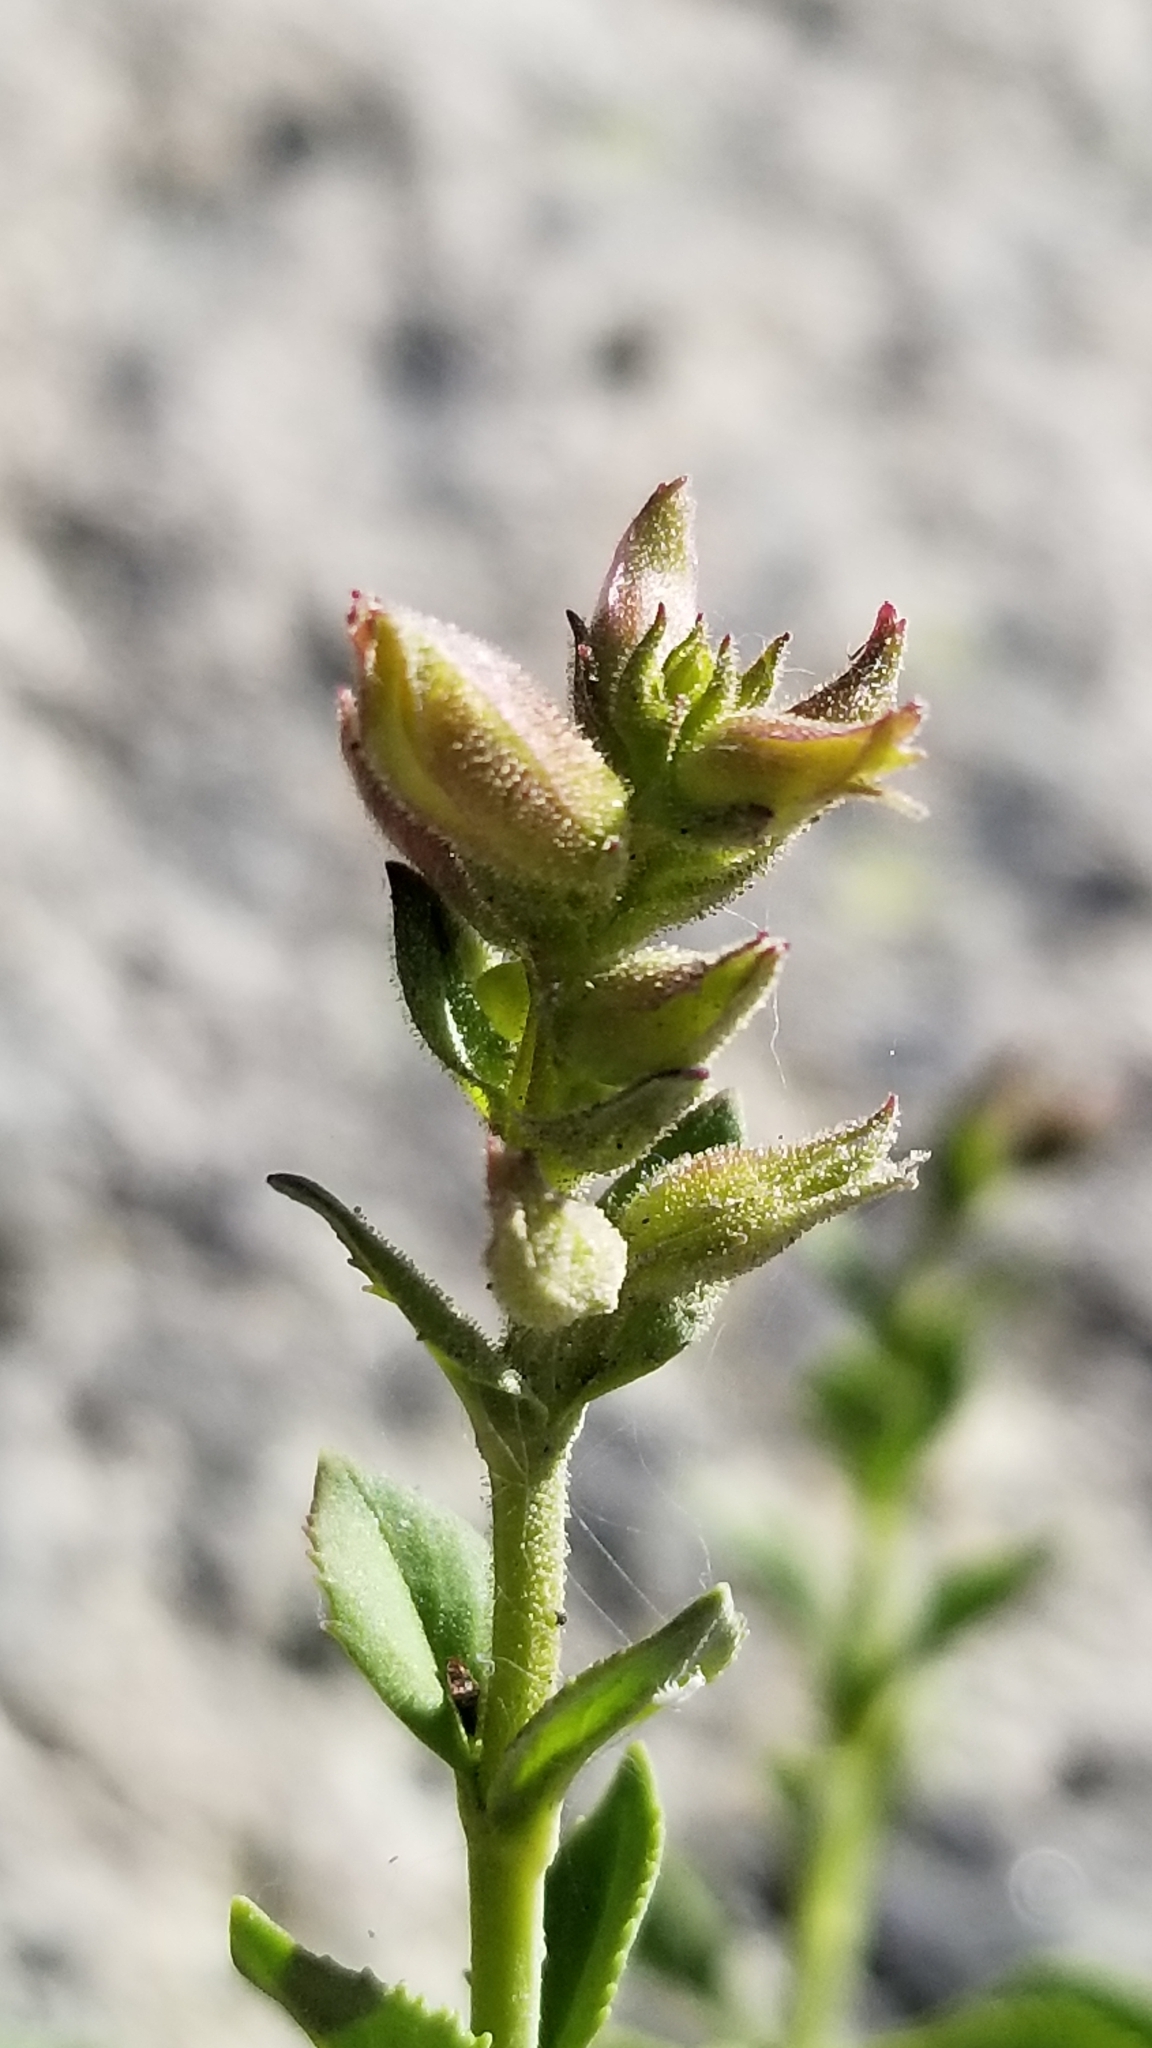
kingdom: Plantae
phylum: Tracheophyta
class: Magnoliopsida
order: Lamiales
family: Plantaginaceae
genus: Penstemon
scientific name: Penstemon newberryi
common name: Mountain-pride
